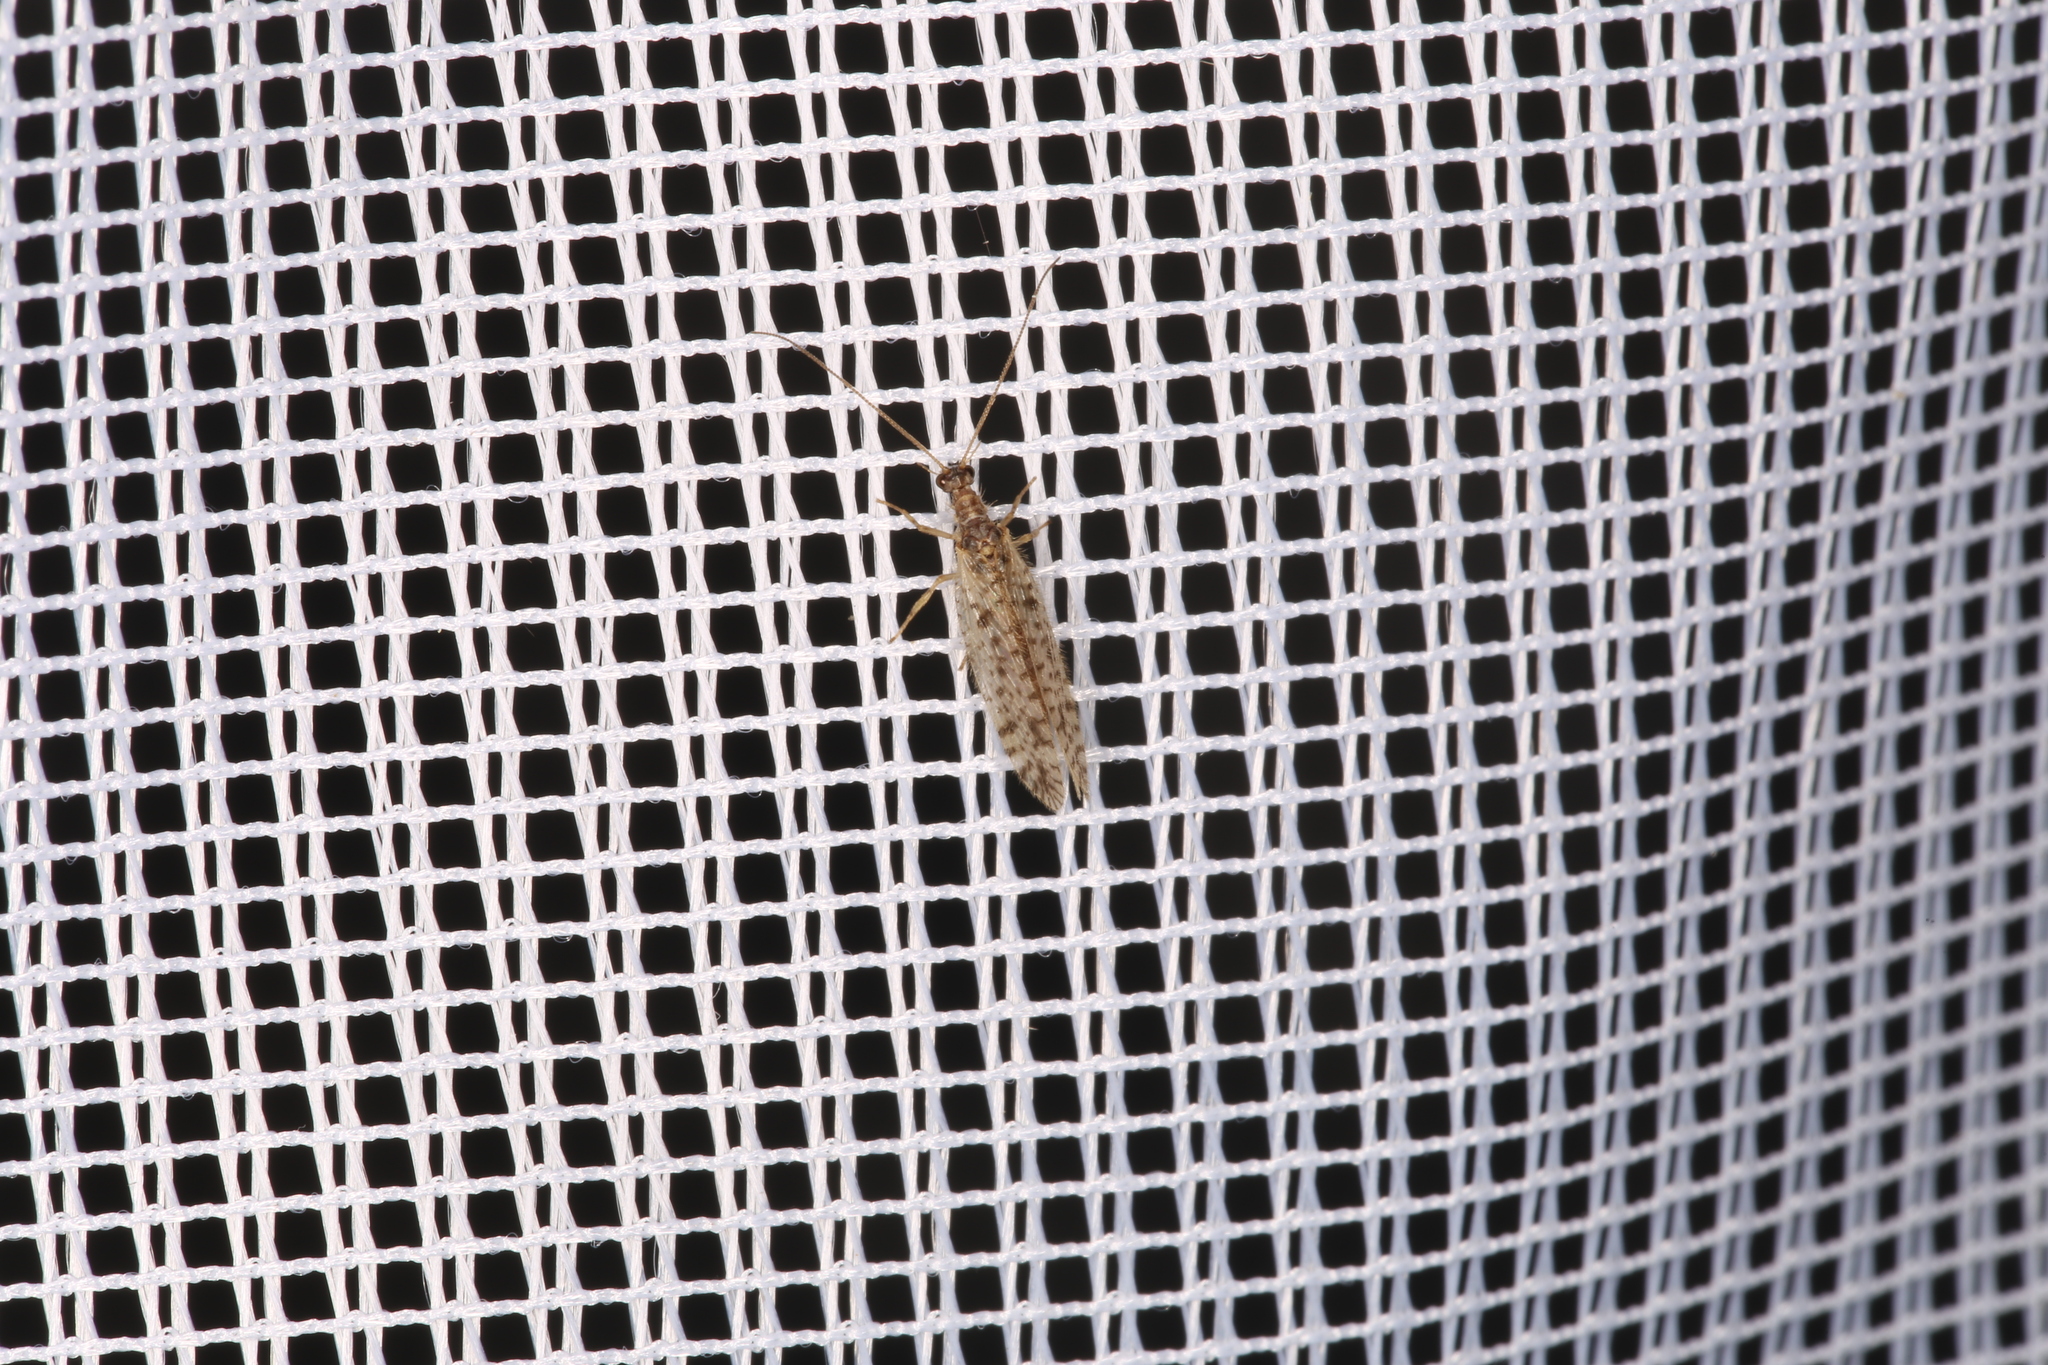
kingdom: Animalia
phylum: Arthropoda
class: Insecta
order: Neuroptera
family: Hemerobiidae
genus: Micromus
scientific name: Micromus variegatus
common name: Brown lacewing
